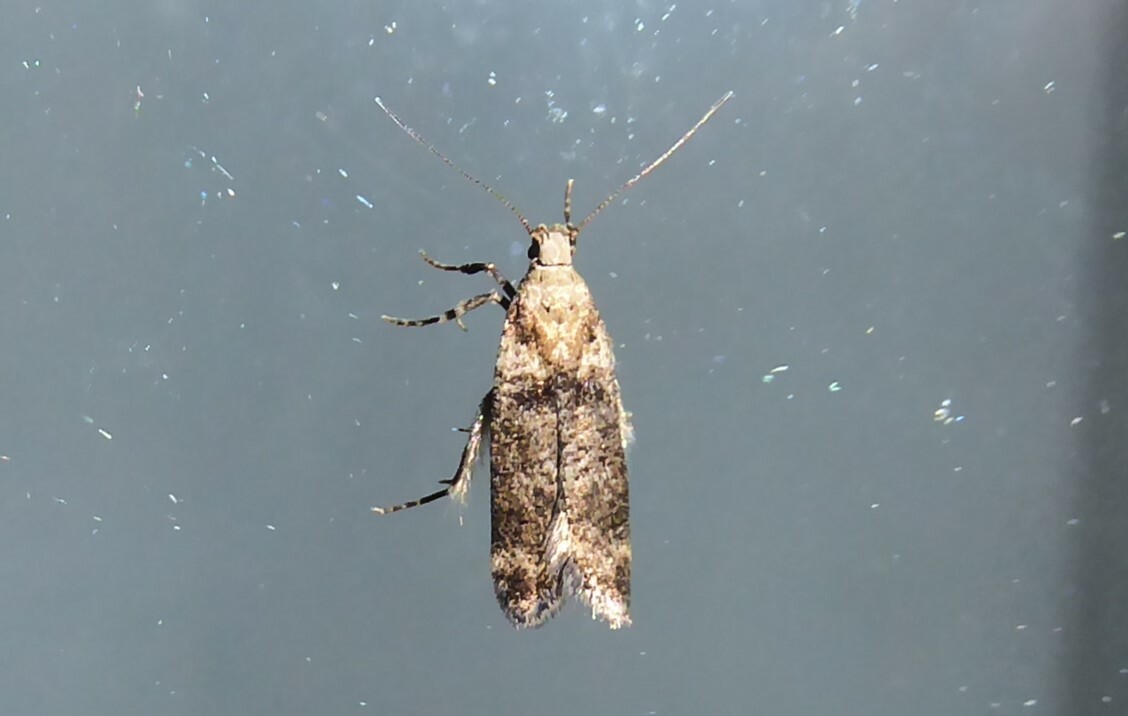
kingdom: Animalia
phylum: Arthropoda
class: Insecta
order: Lepidoptera
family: Gelechiidae
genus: Anisoplaca
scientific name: Anisoplaca acrodactyla
